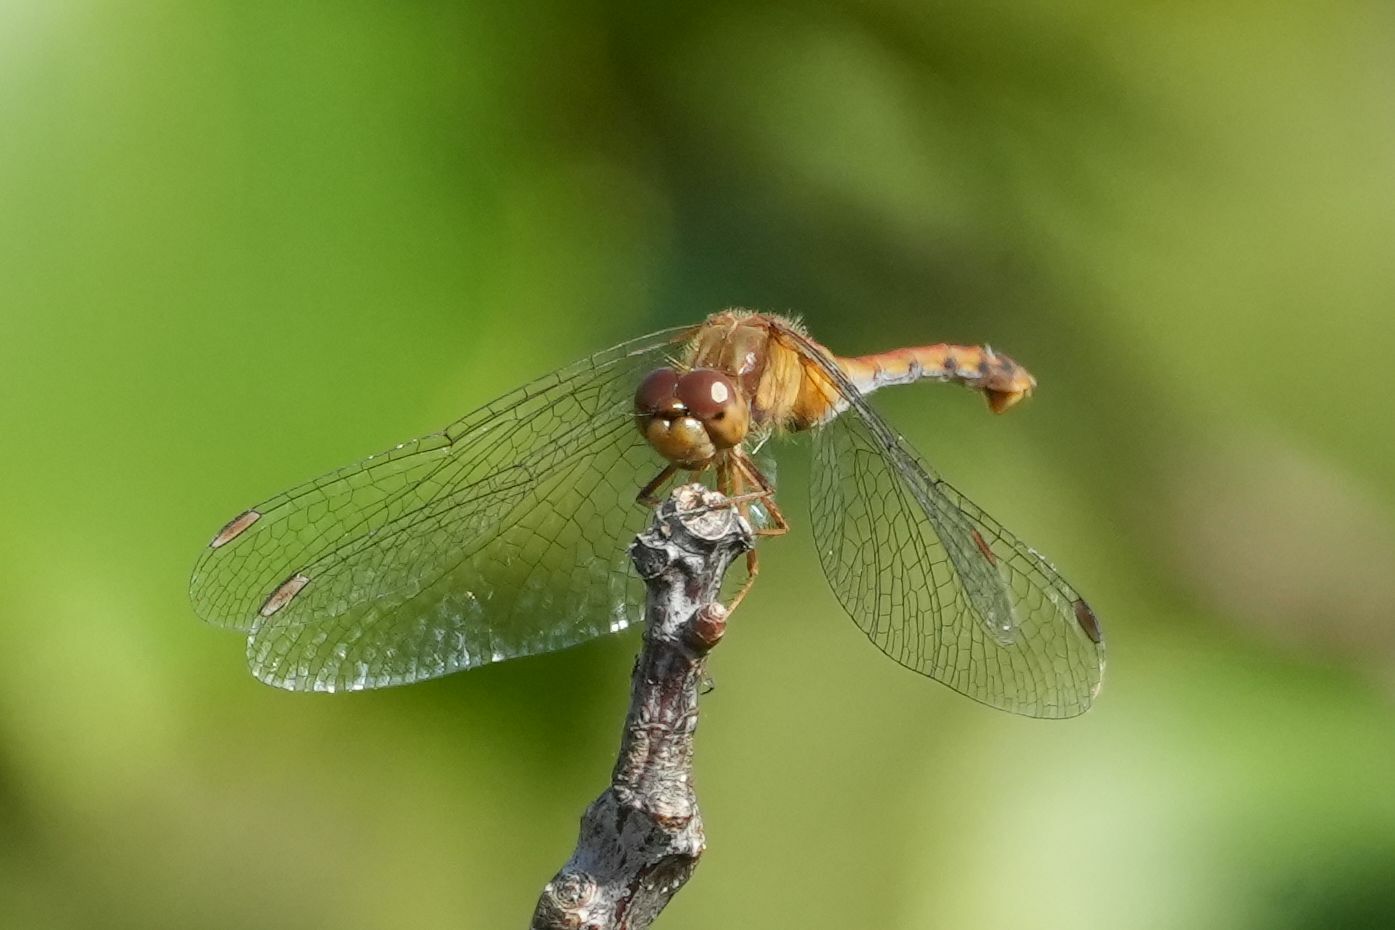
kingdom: Animalia
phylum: Arthropoda
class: Insecta
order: Odonata
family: Libellulidae
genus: Sympetrum
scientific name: Sympetrum vicinum
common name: Autumn meadowhawk
